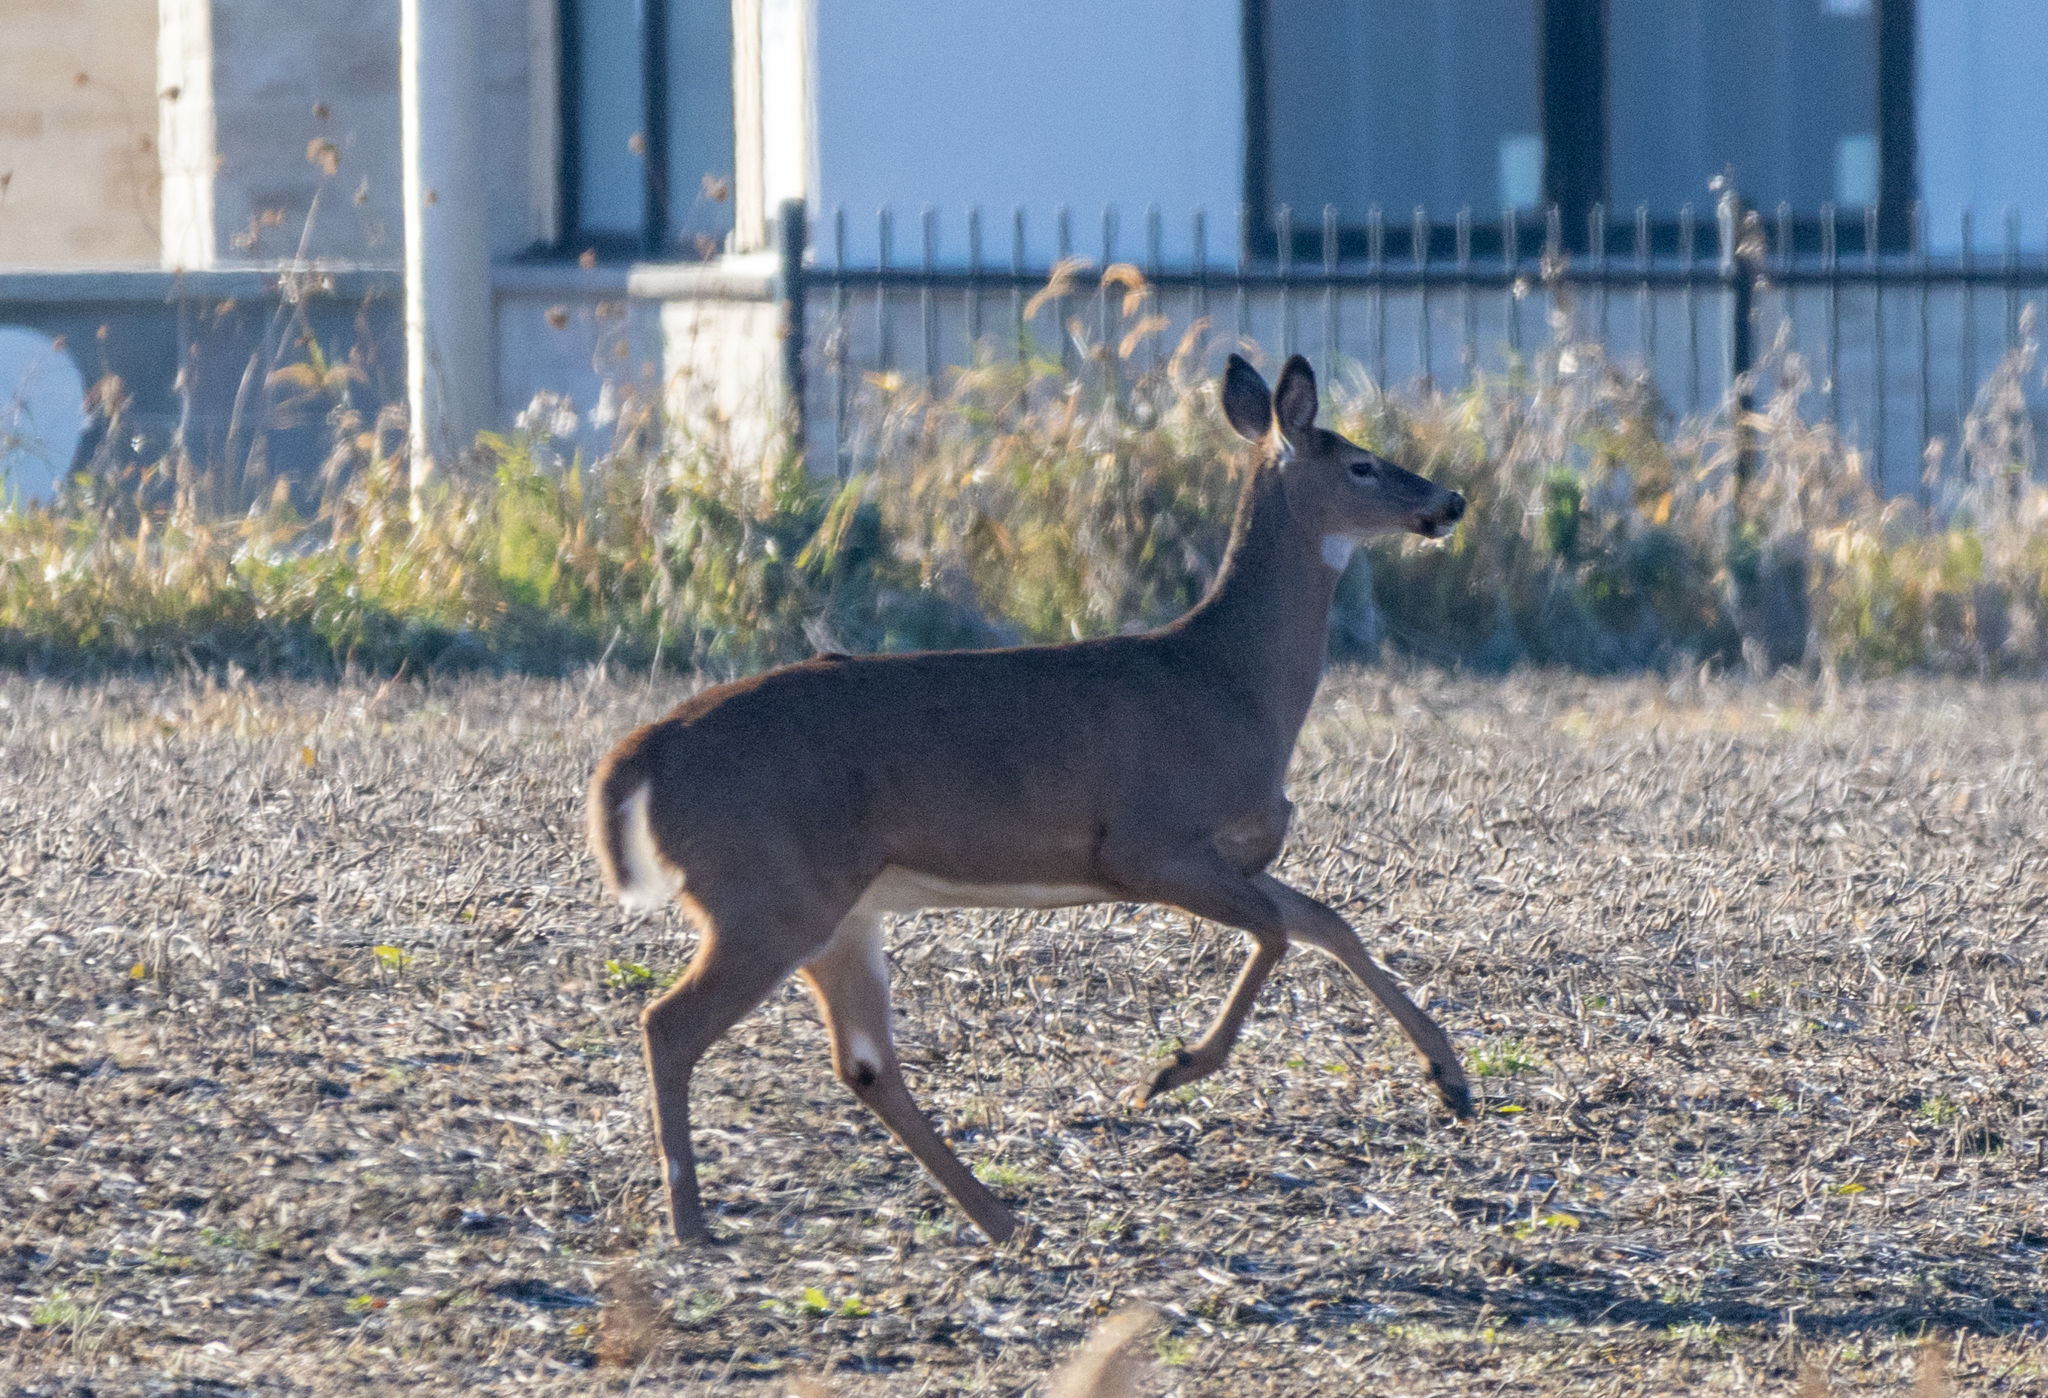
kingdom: Animalia
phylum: Chordata
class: Mammalia
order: Artiodactyla
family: Cervidae
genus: Odocoileus
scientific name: Odocoileus virginianus
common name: White-tailed deer
